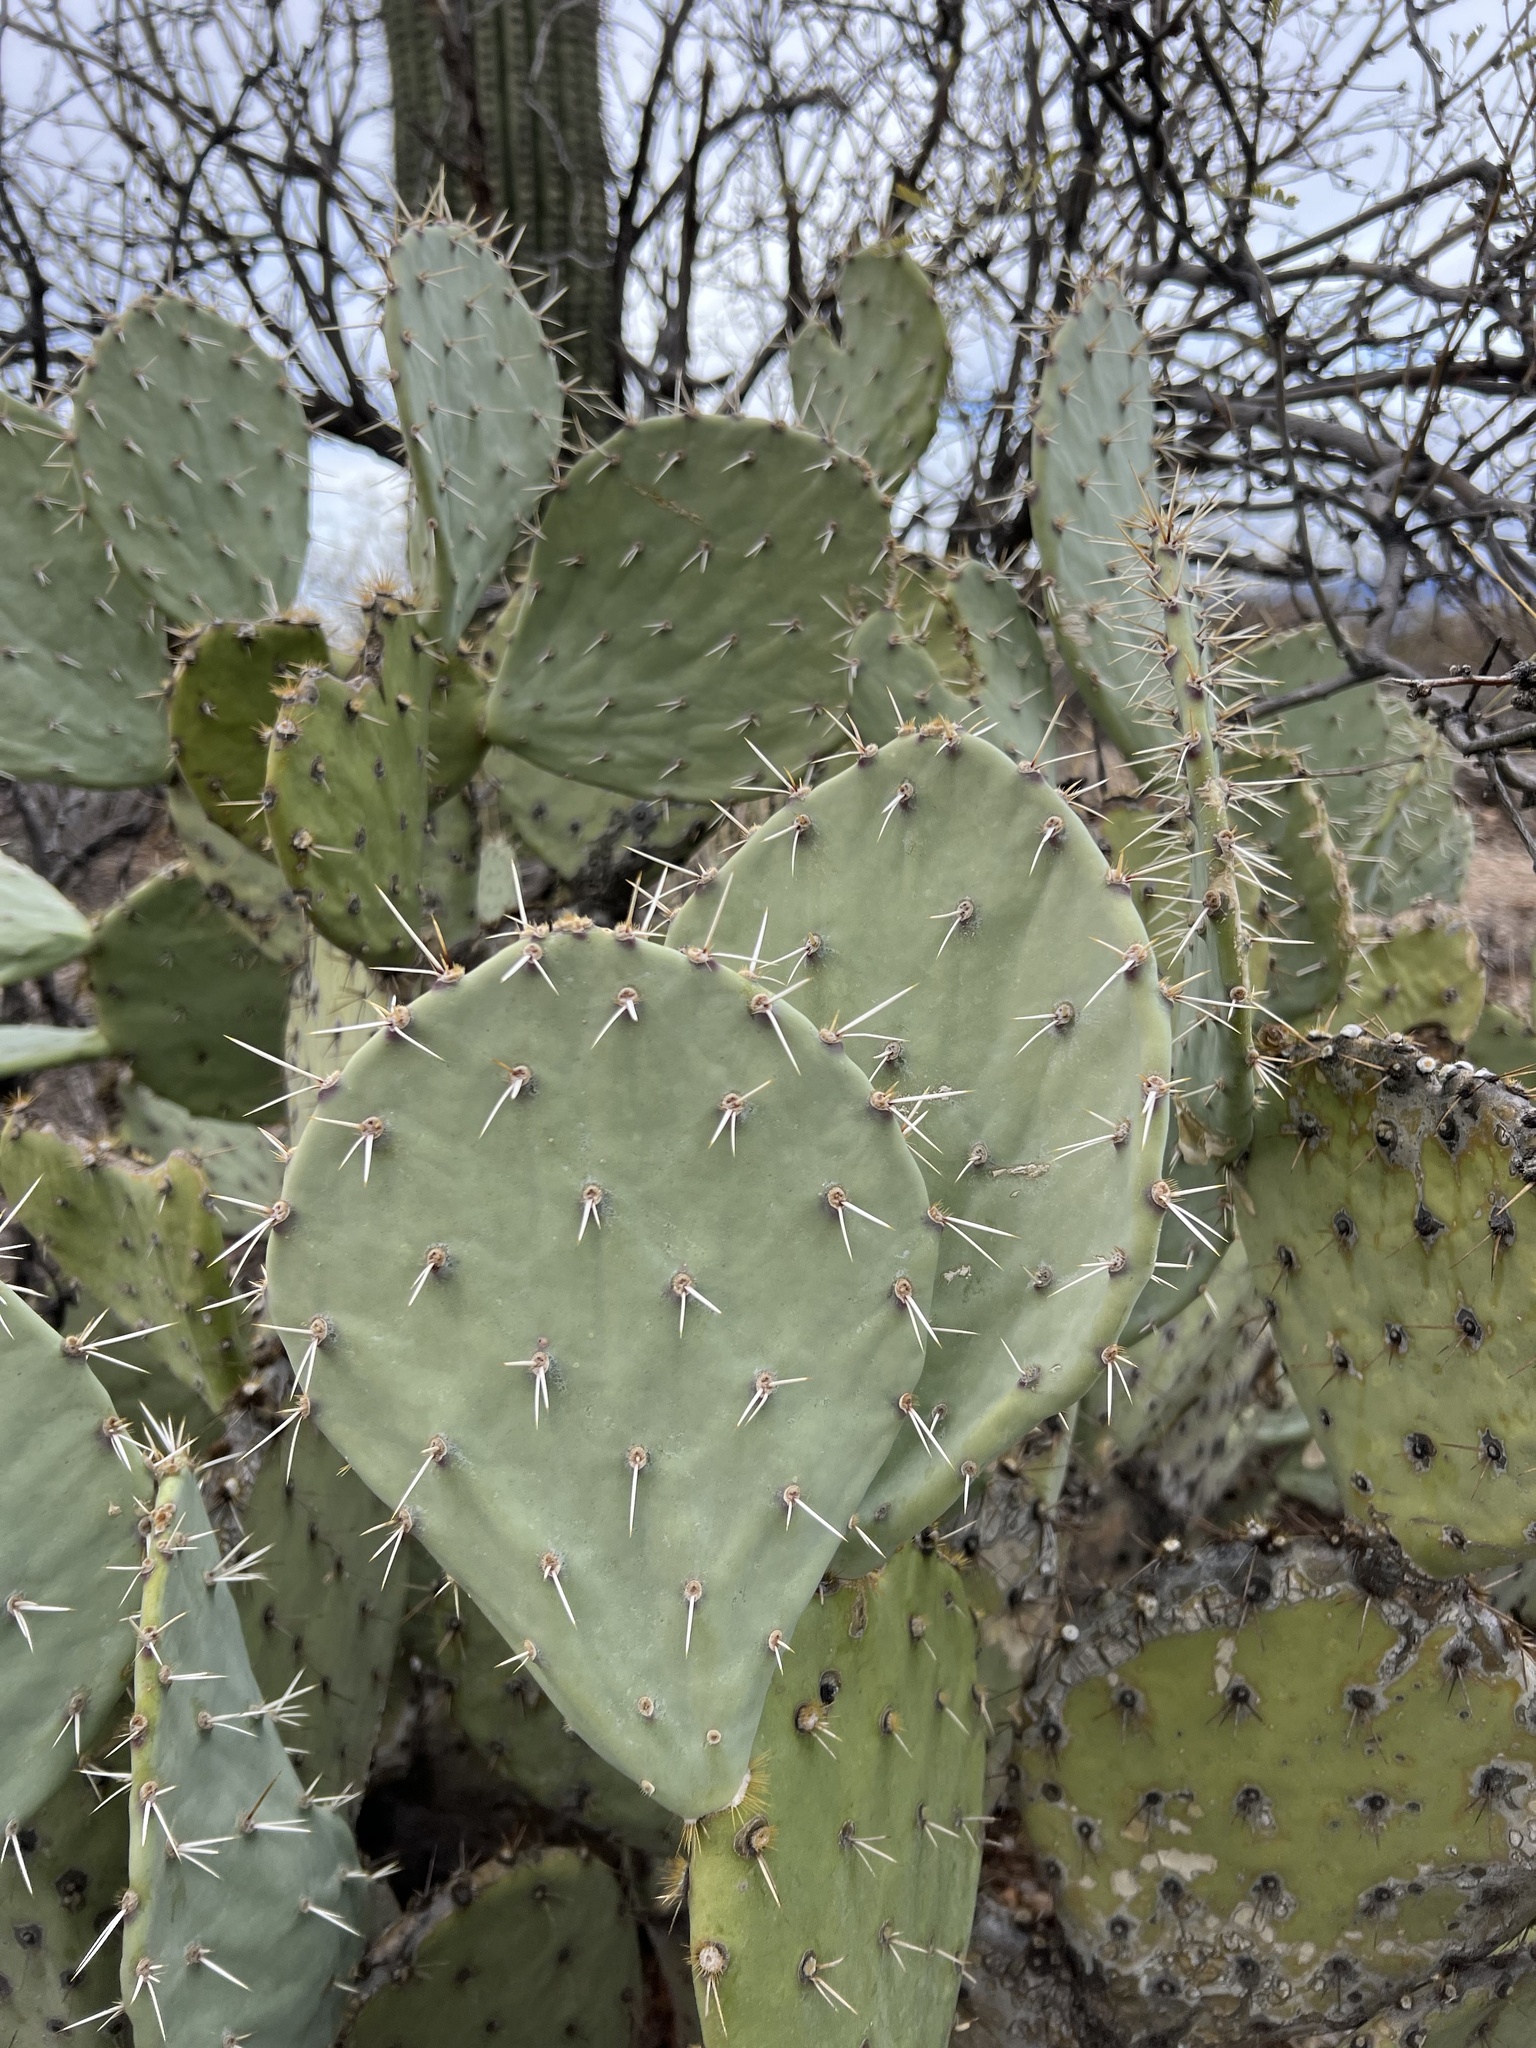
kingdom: Plantae
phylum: Tracheophyta
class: Magnoliopsida
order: Caryophyllales
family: Cactaceae
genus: Opuntia
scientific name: Opuntia engelmannii
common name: Cactus-apple
